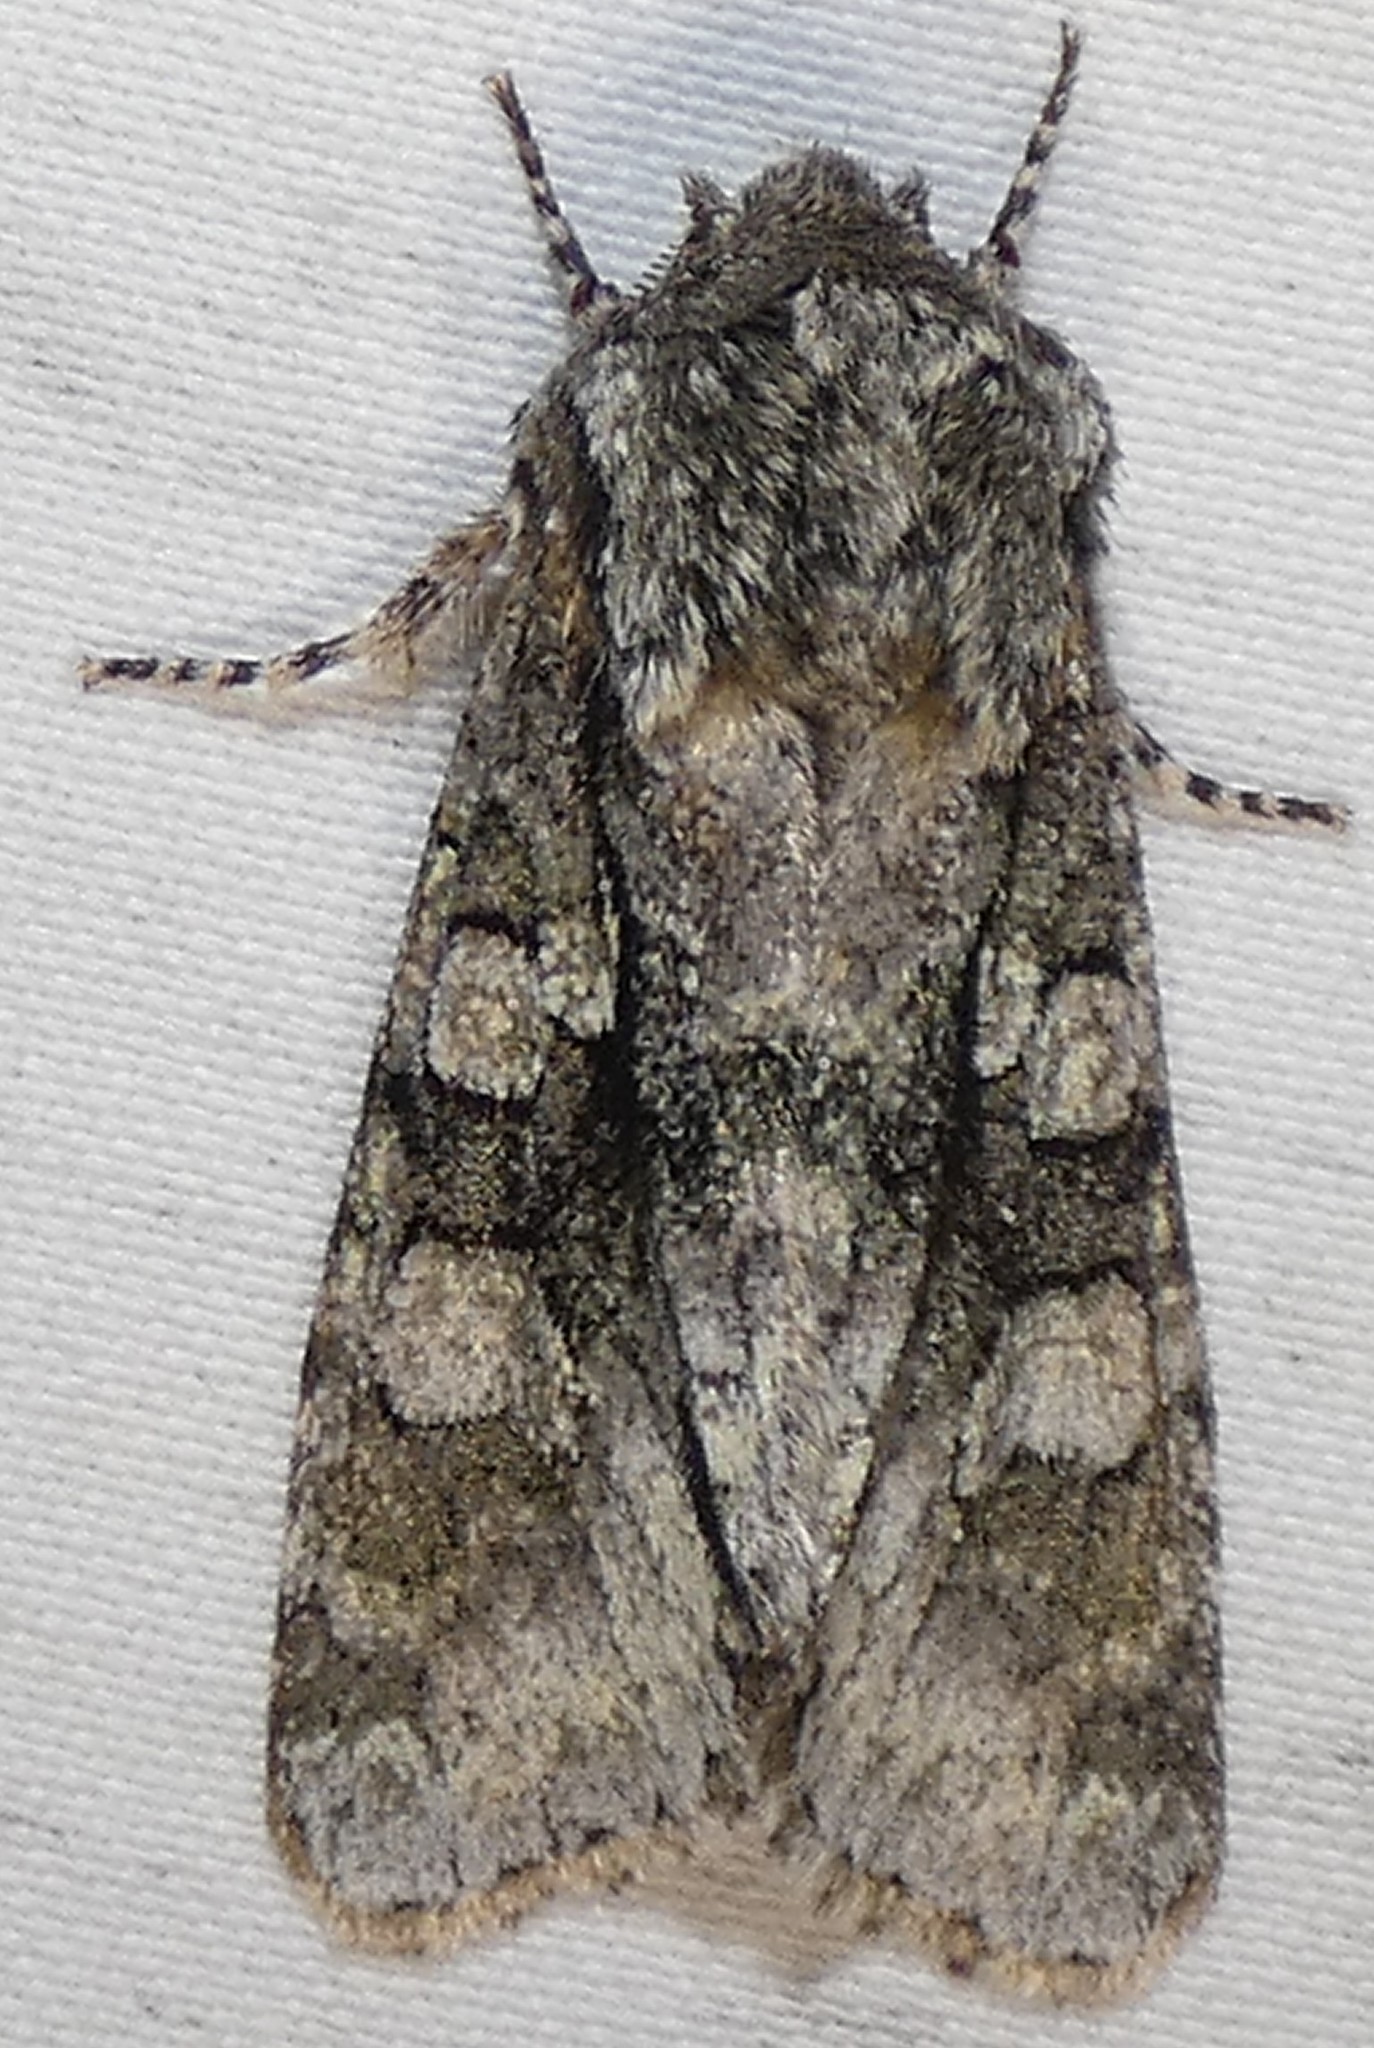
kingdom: Animalia
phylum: Arthropoda
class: Insecta
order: Lepidoptera
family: Noctuidae
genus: Psaphida
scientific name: Psaphida resumens
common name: Figure-eight sallow
